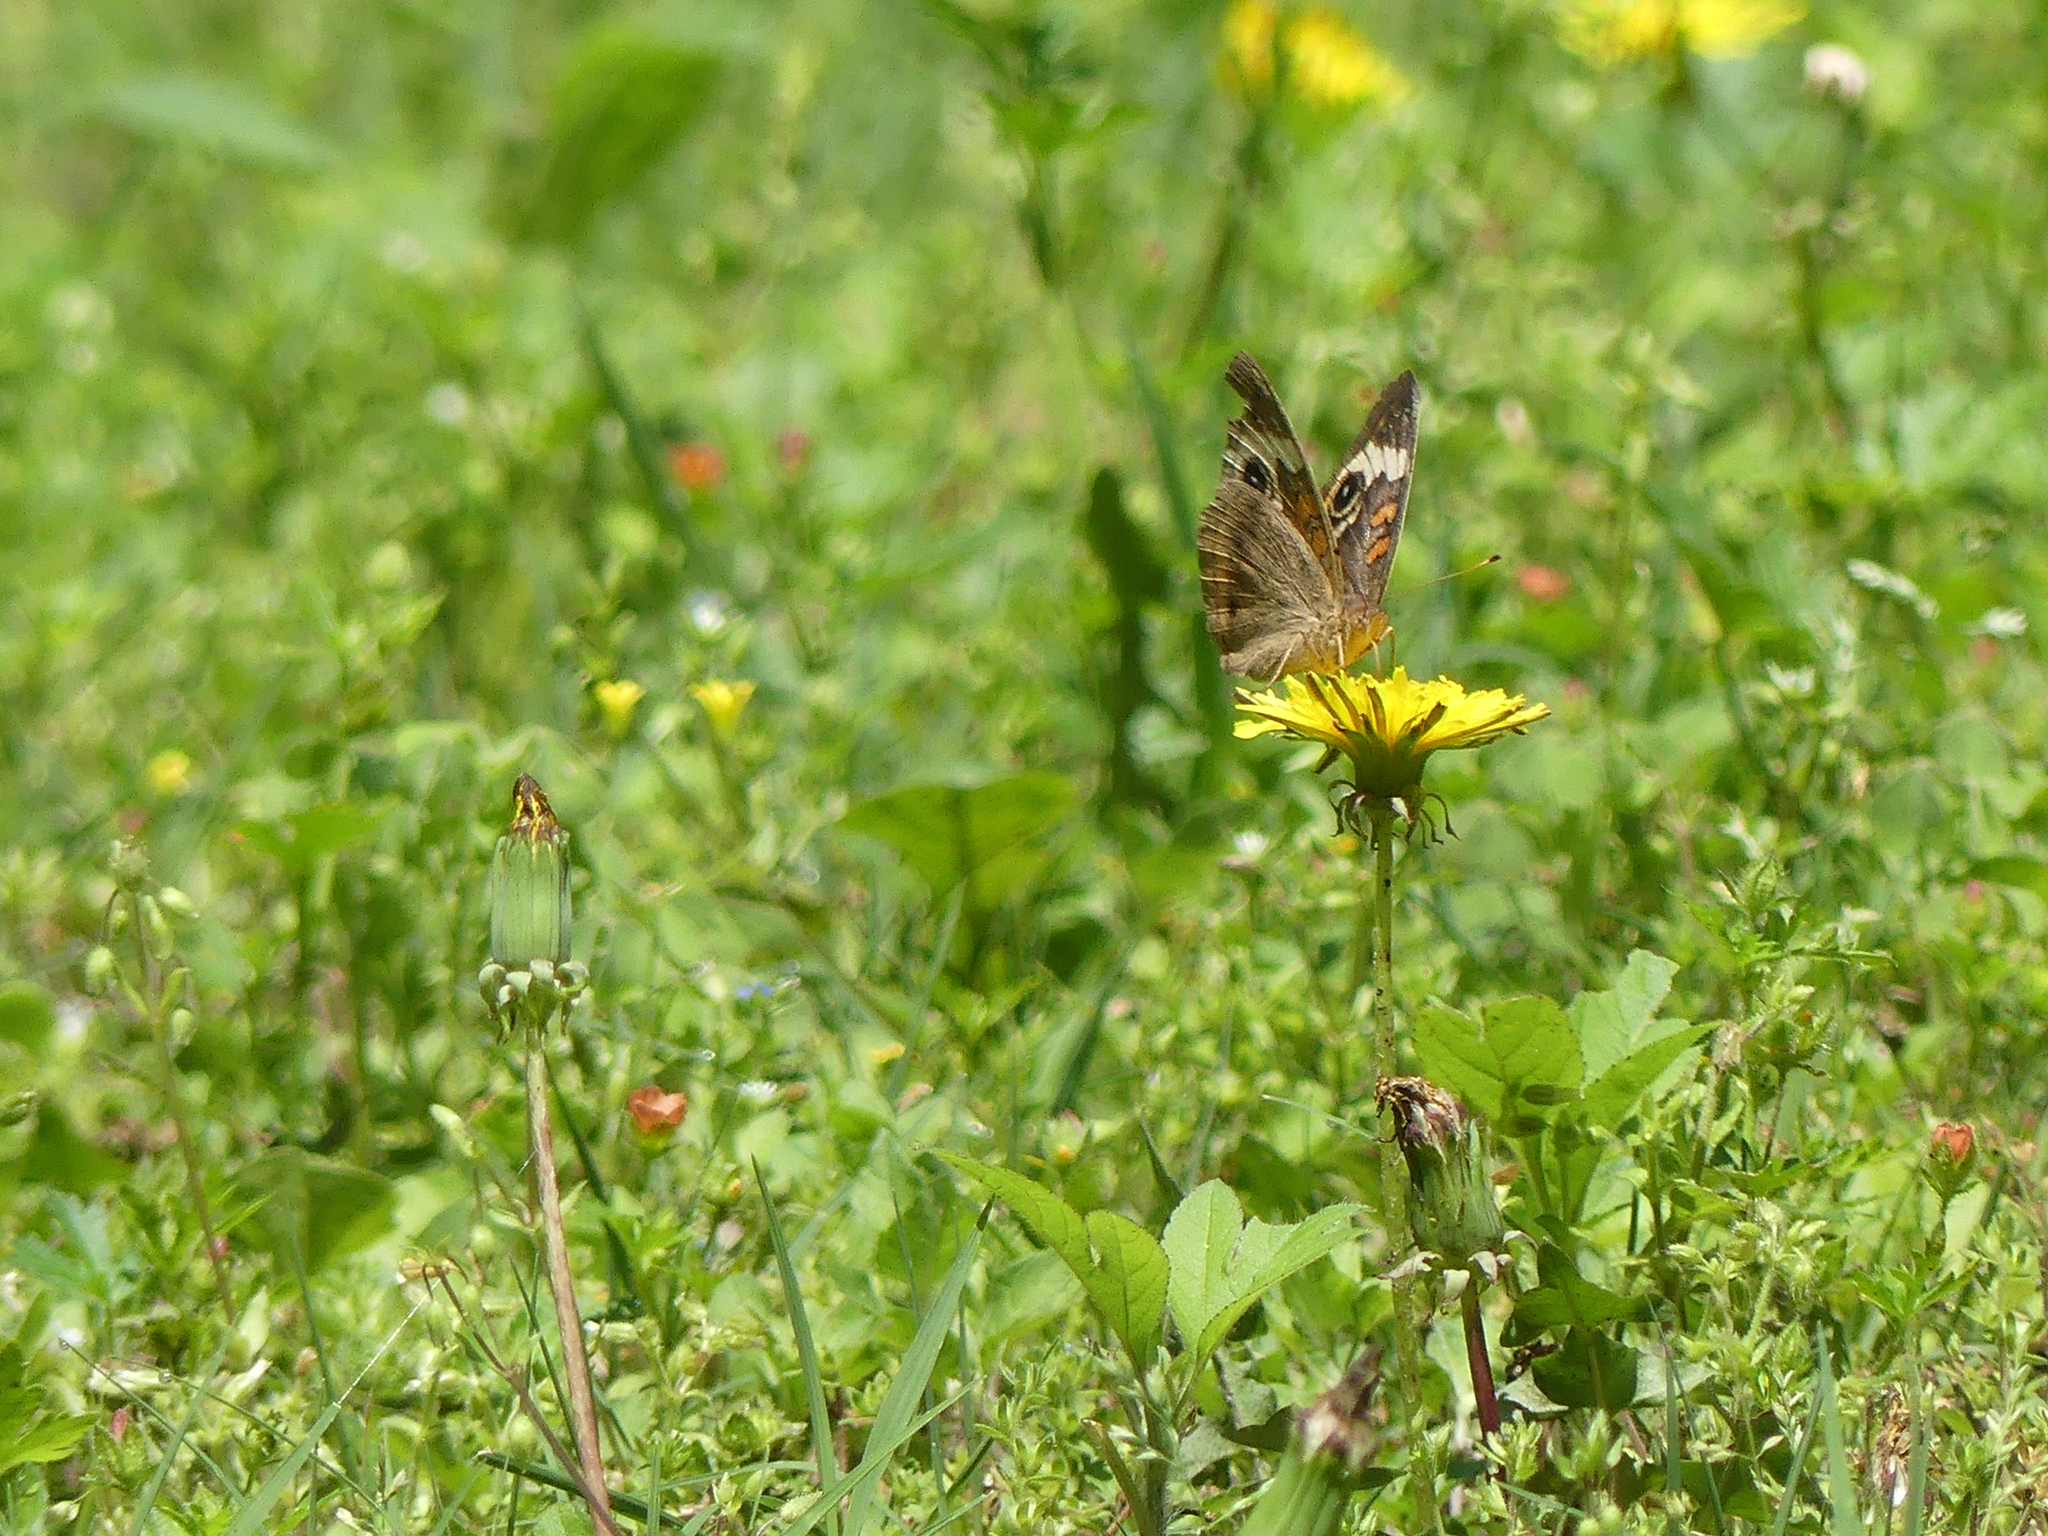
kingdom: Animalia
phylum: Arthropoda
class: Insecta
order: Lepidoptera
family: Nymphalidae
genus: Junonia
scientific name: Junonia coenia
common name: Common buckeye
